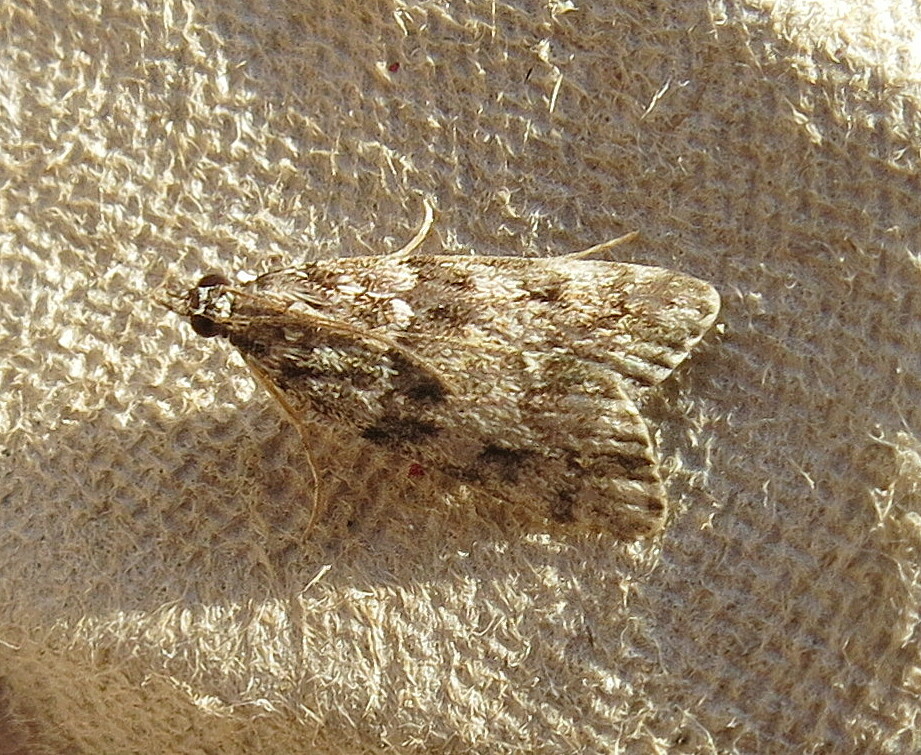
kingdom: Animalia
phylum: Arthropoda
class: Insecta
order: Lepidoptera
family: Crambidae
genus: Eudonia
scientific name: Eudonia mercurella
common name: Small grey
